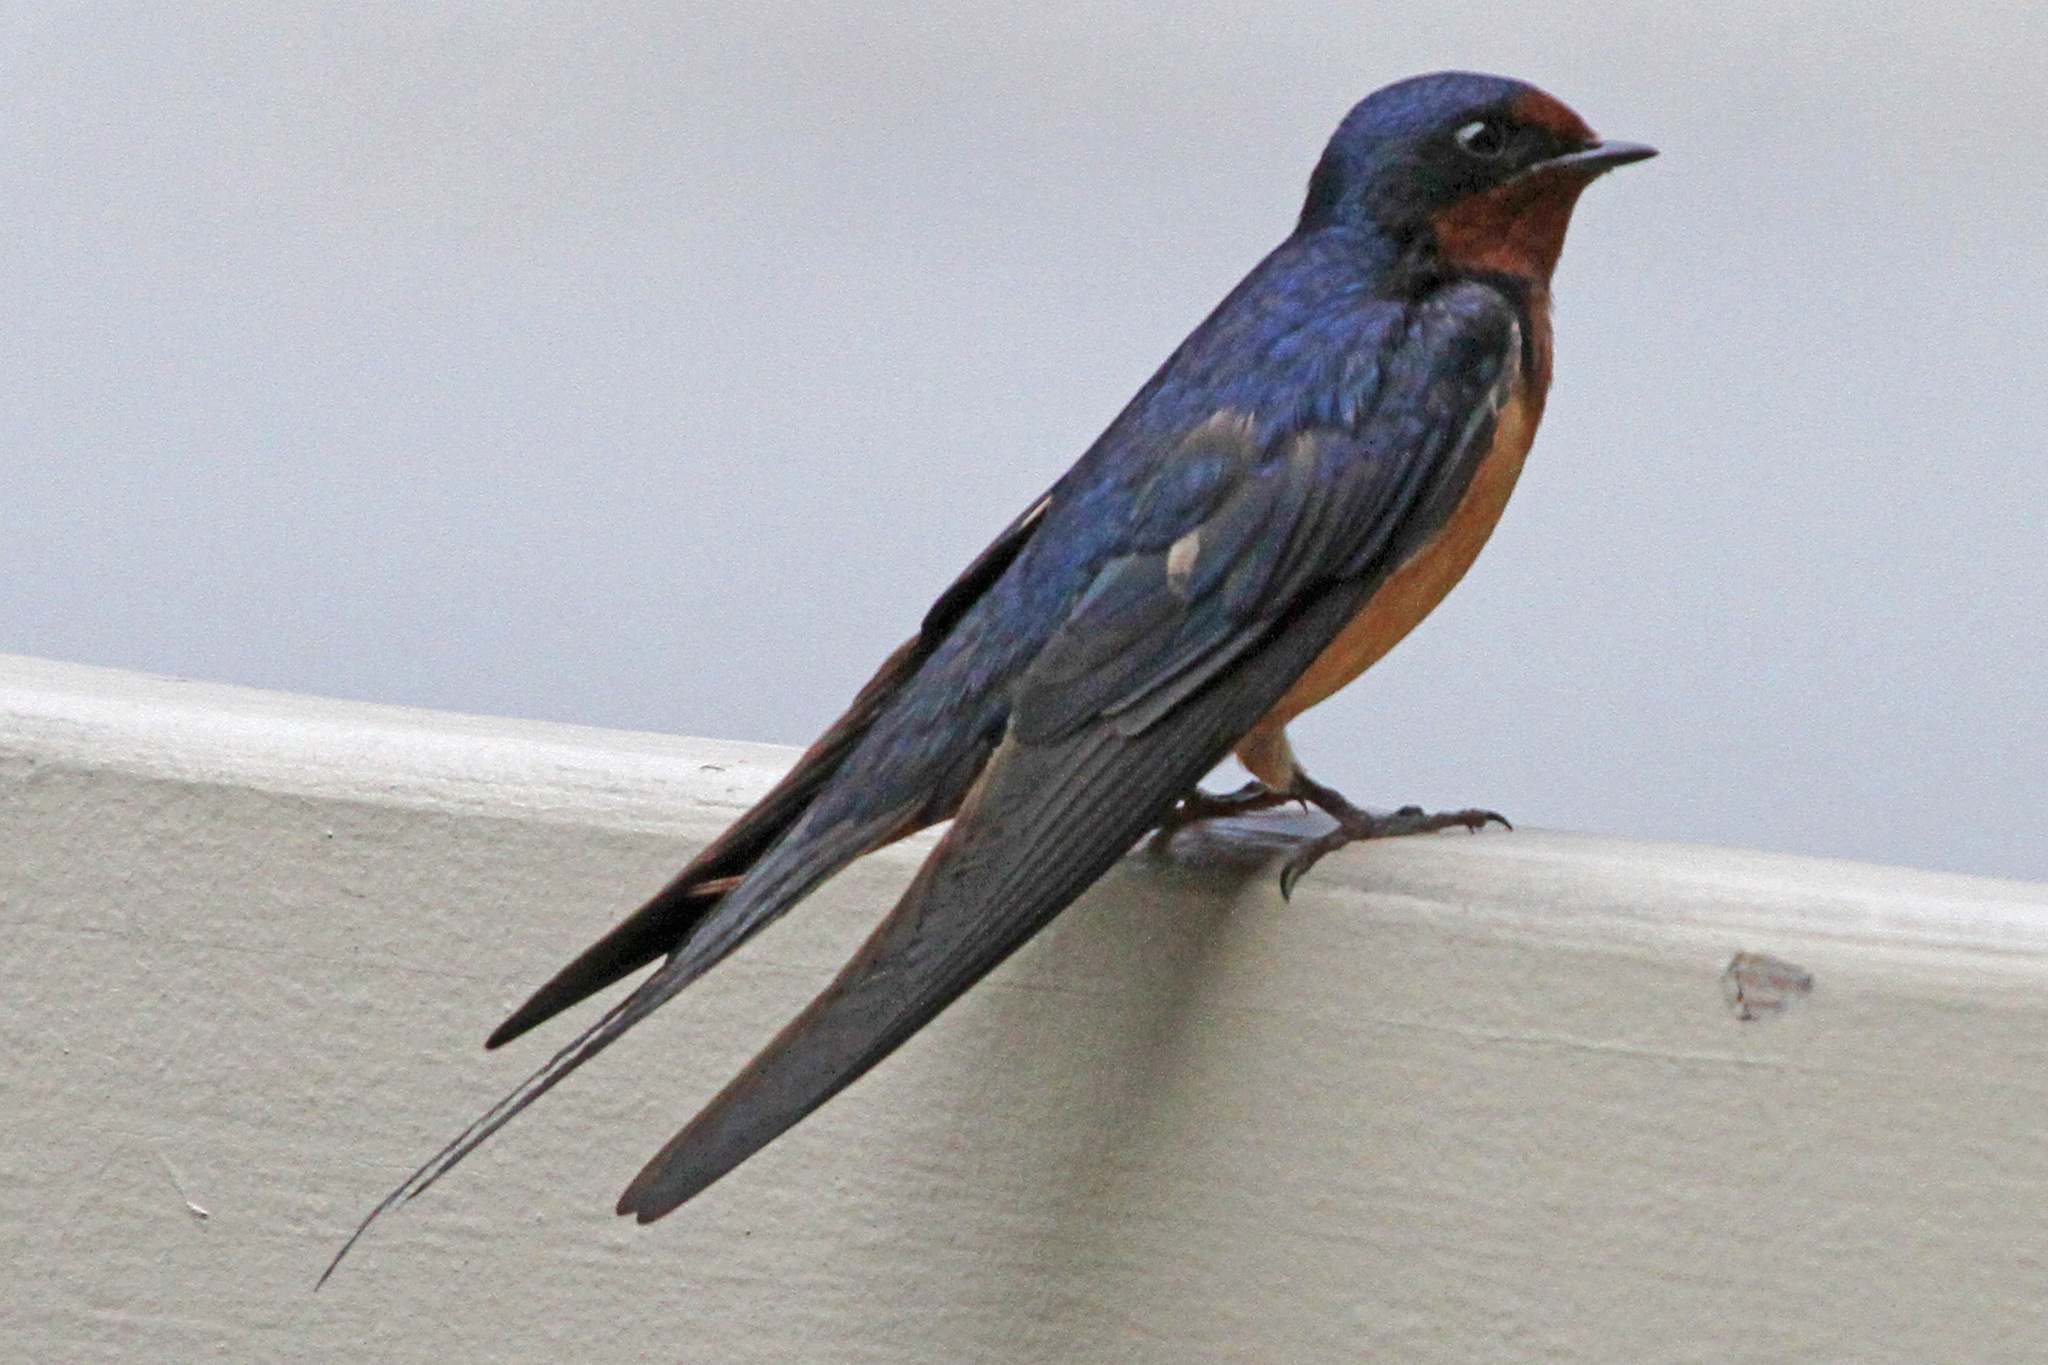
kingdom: Animalia
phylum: Chordata
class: Aves
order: Passeriformes
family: Hirundinidae
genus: Hirundo
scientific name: Hirundo rustica
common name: Barn swallow
